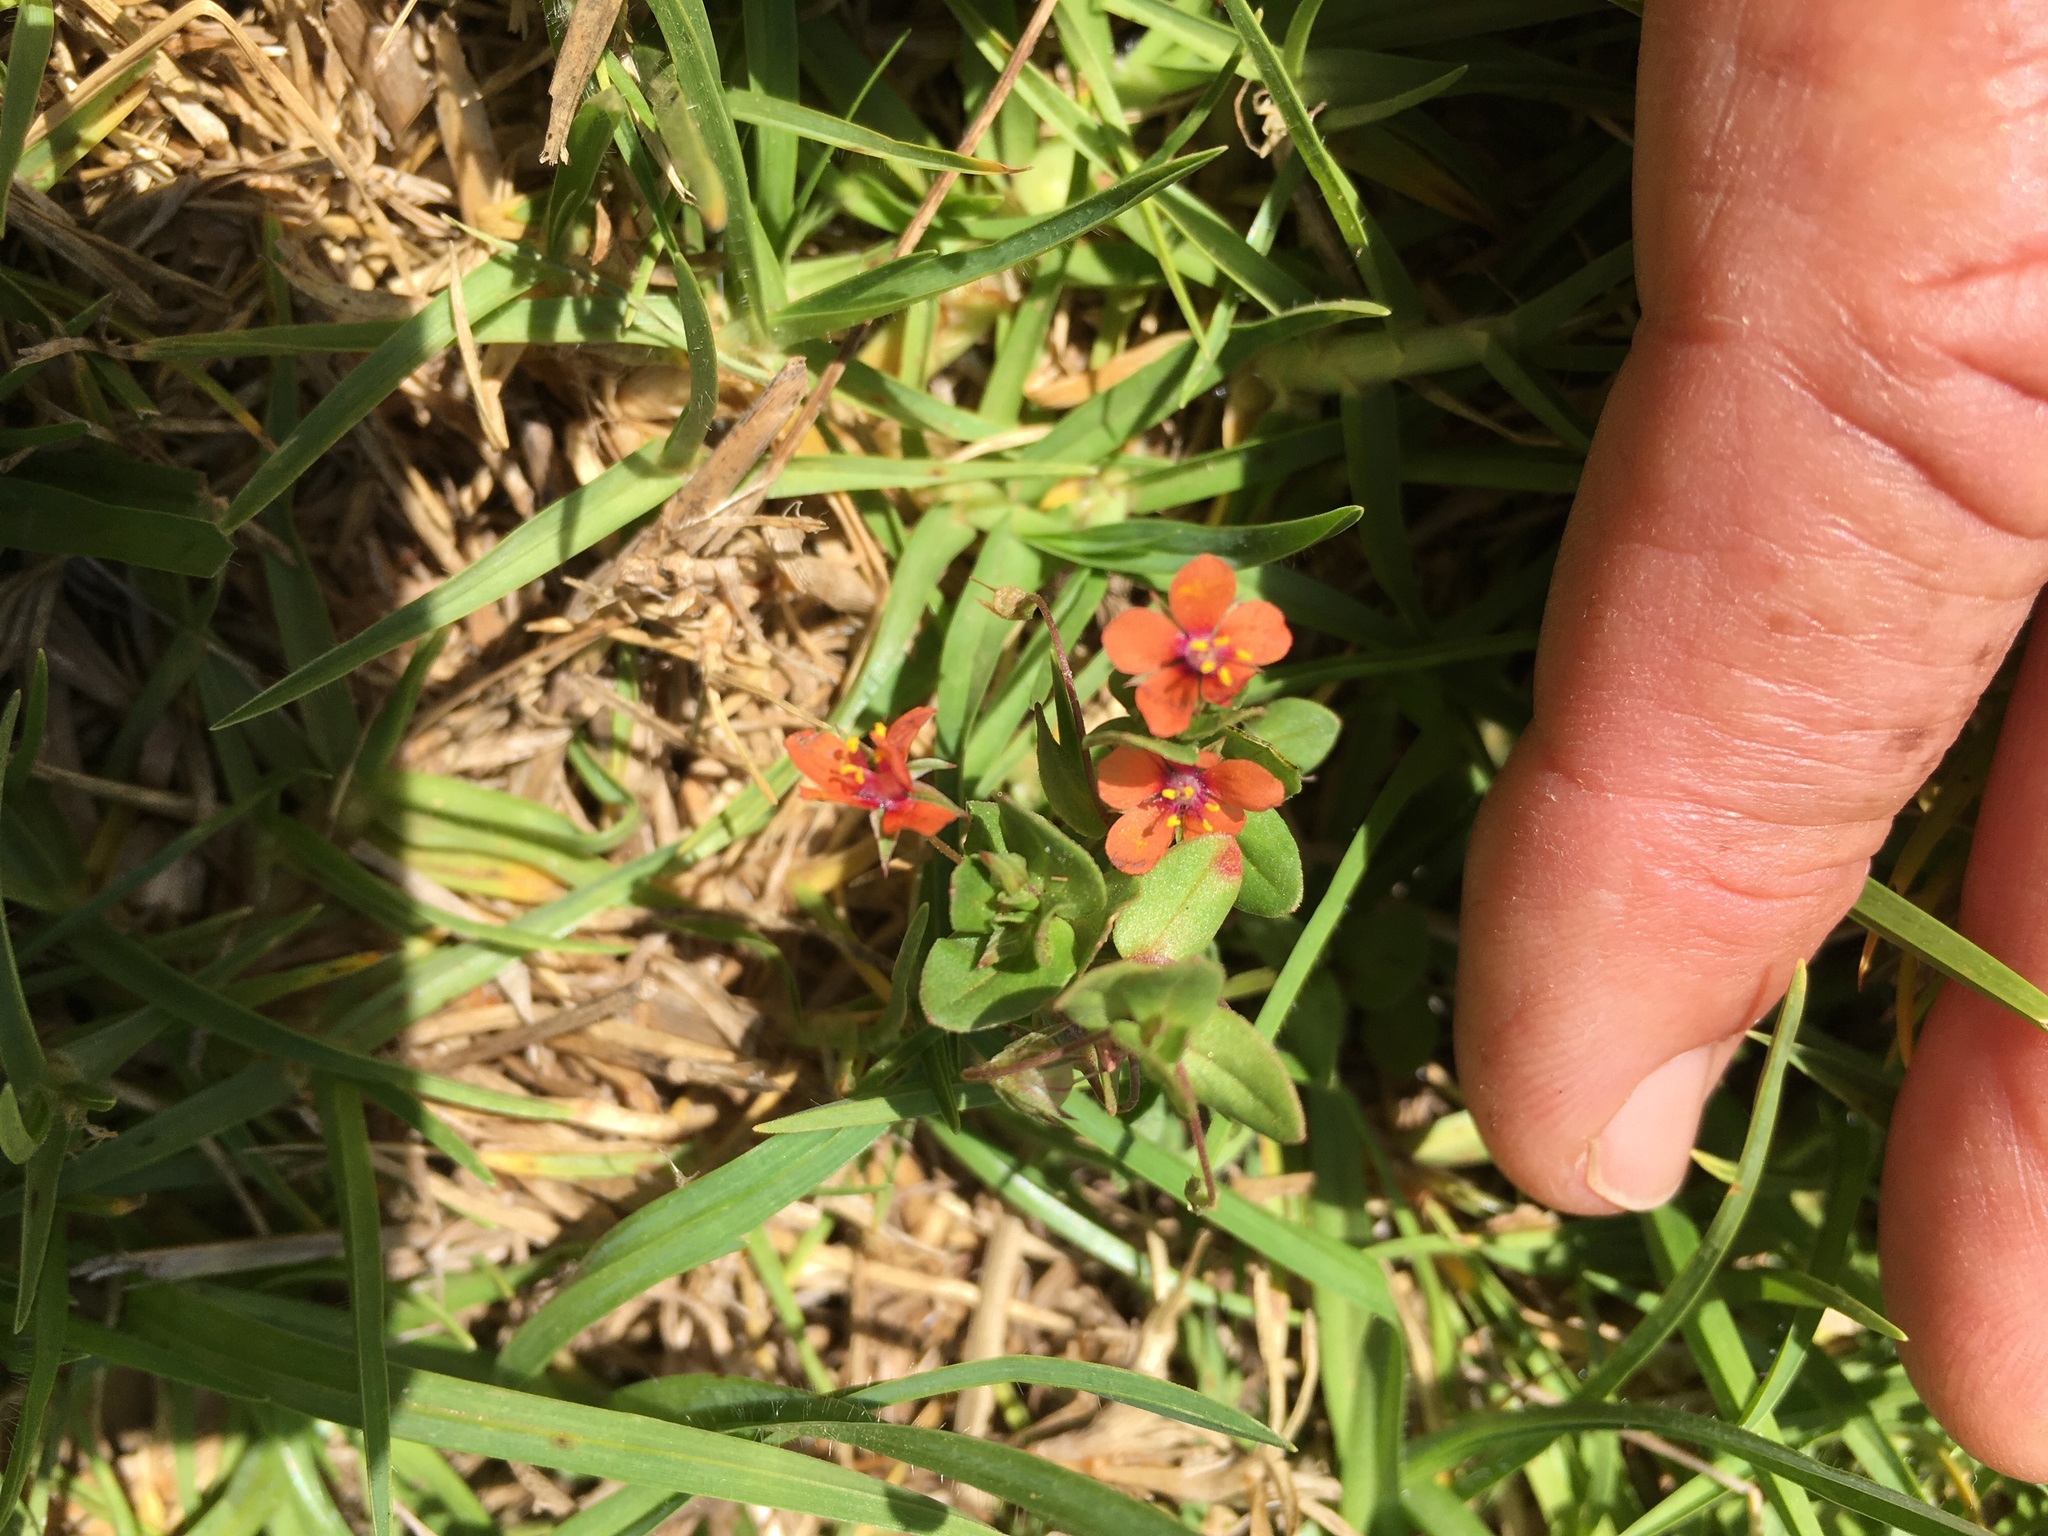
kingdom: Plantae
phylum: Tracheophyta
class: Magnoliopsida
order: Ericales
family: Primulaceae
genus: Lysimachia
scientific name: Lysimachia arvensis
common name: Scarlet pimpernel
